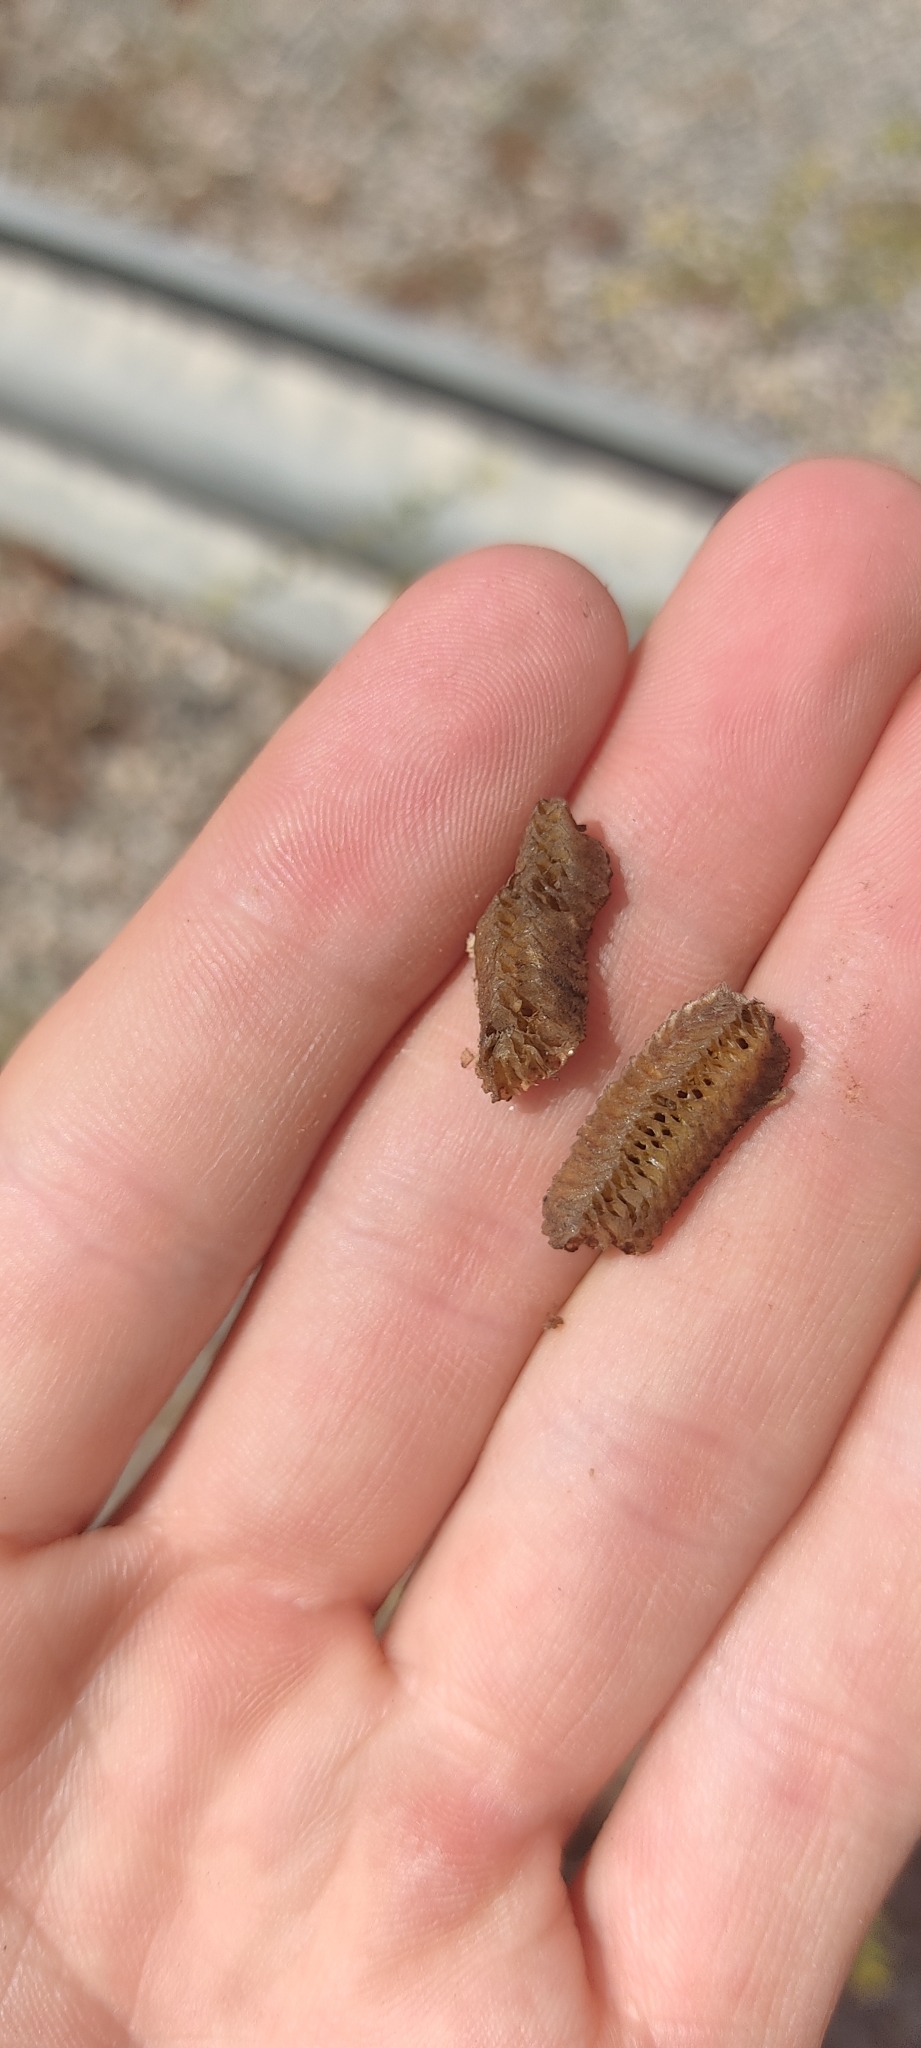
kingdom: Animalia
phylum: Arthropoda
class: Insecta
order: Mantodea
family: Eremiaphilidae
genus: Iris
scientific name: Iris oratoria
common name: Mediterranean mantis
